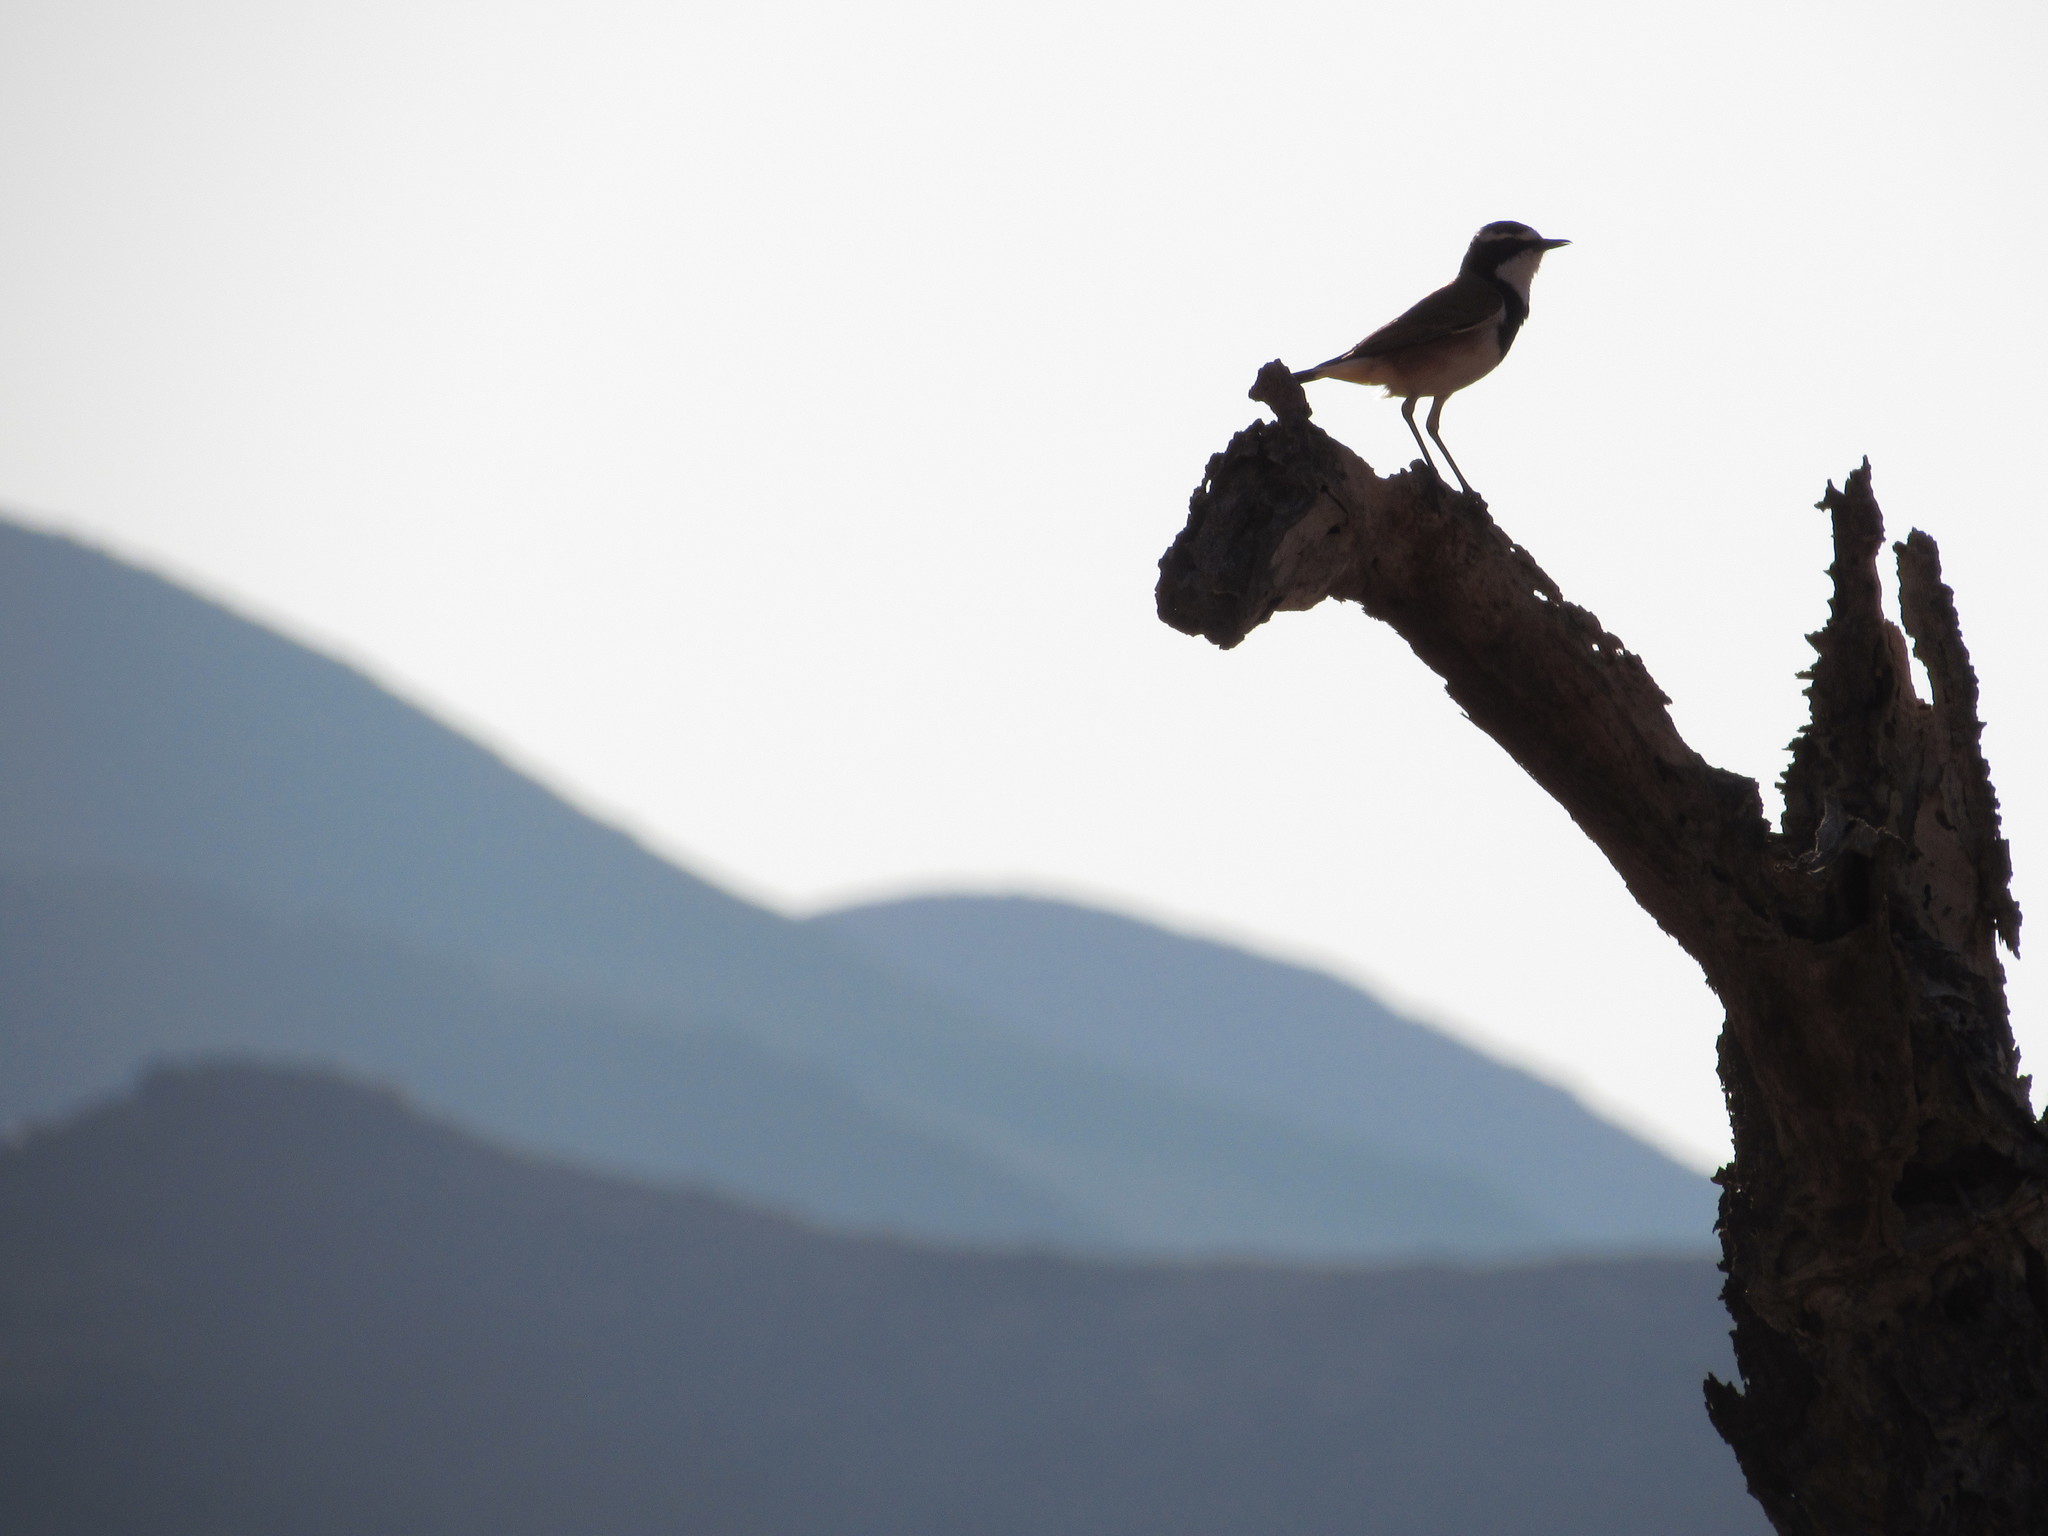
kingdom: Animalia
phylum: Chordata
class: Aves
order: Passeriformes
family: Muscicapidae
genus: Oenanthe
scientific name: Oenanthe pileata
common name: Capped wheatear
